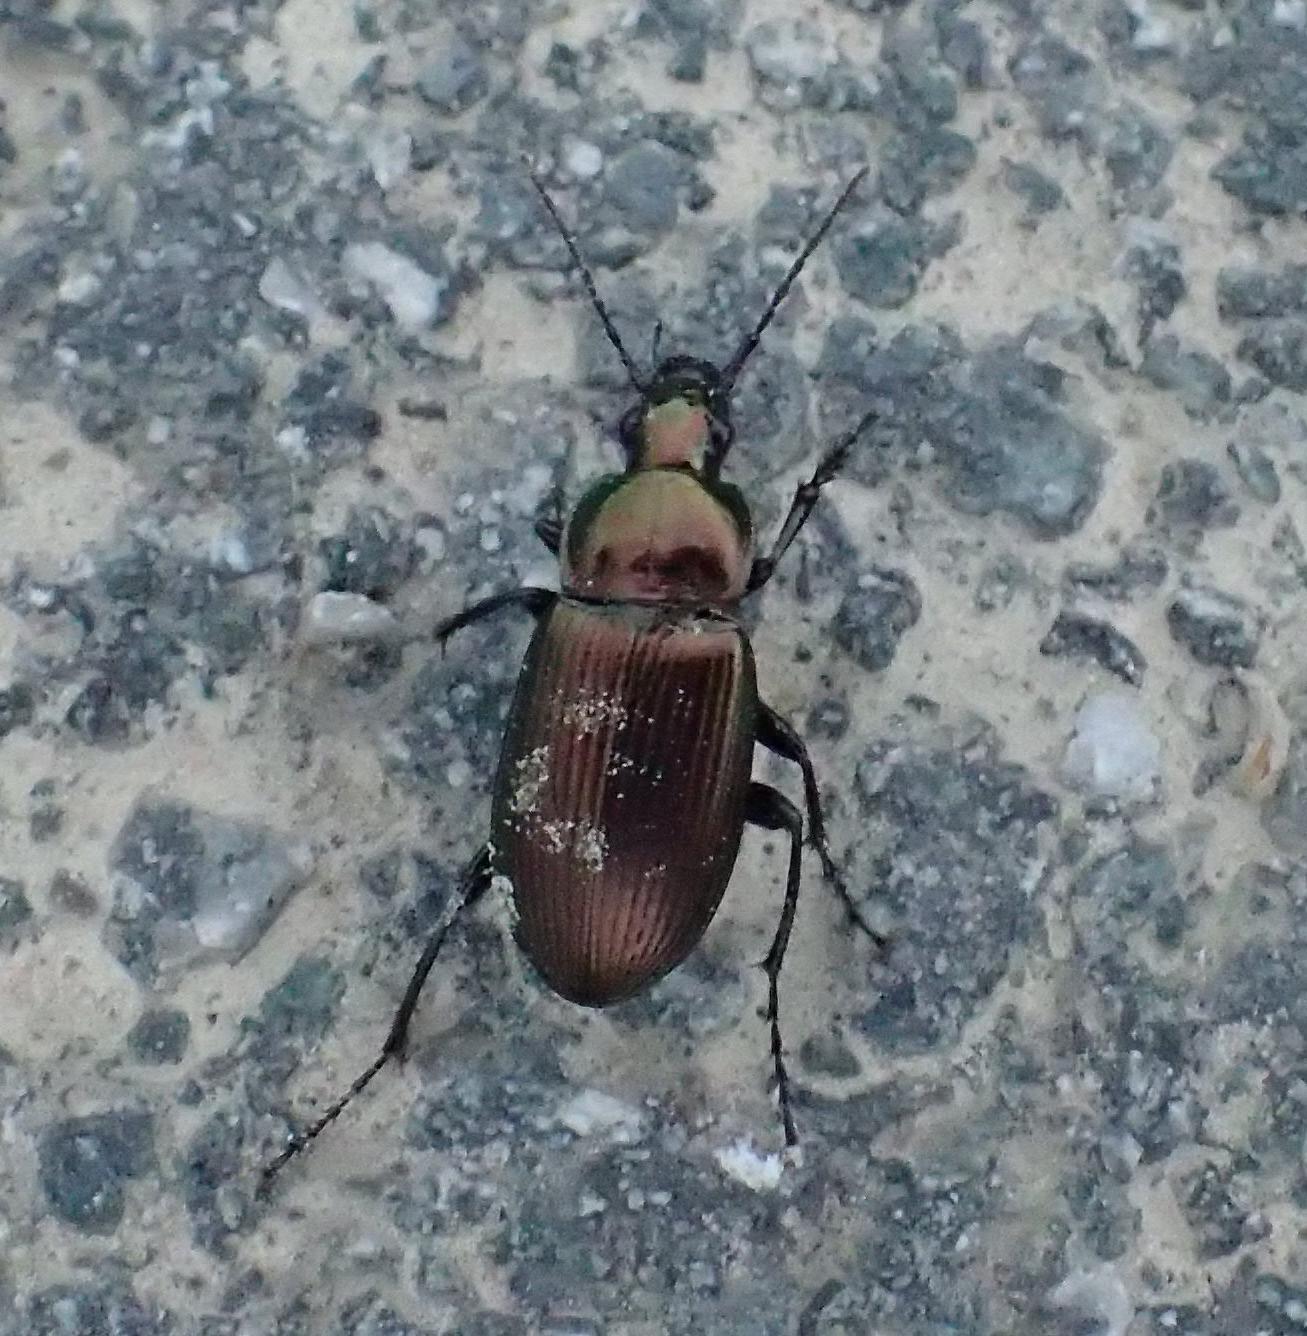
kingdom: Animalia
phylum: Arthropoda
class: Insecta
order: Coleoptera
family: Carabidae
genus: Poecilus
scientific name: Poecilus cupreus
